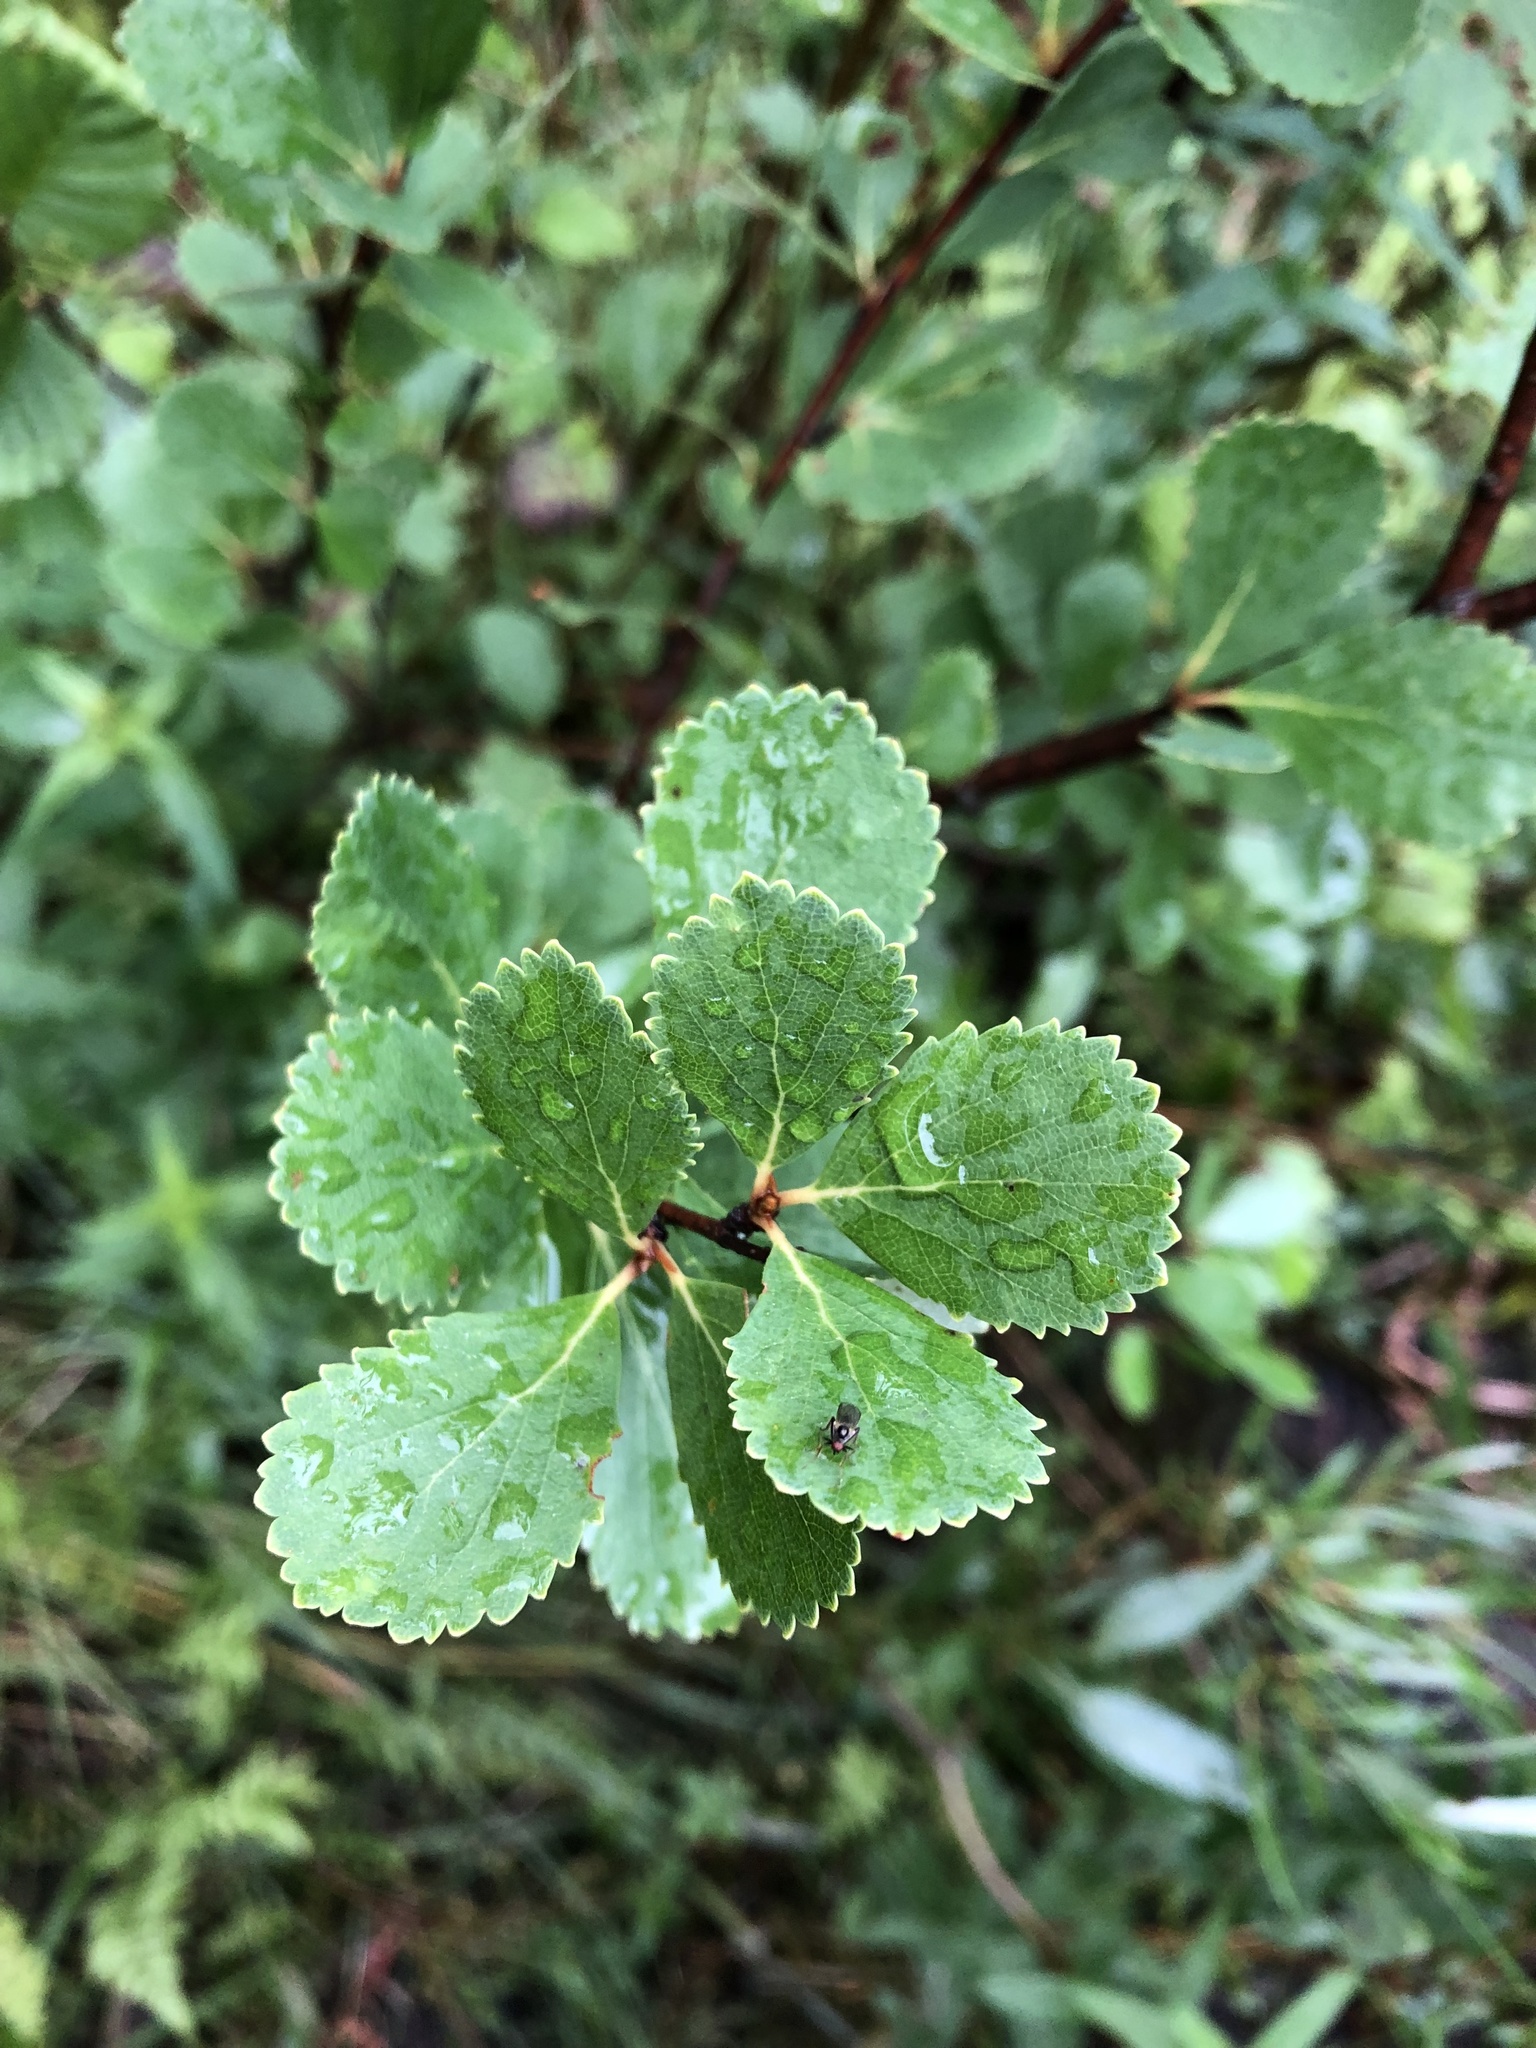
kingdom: Plantae
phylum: Tracheophyta
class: Magnoliopsida
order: Fagales
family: Betulaceae
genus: Betula
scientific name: Betula pumila
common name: Bog birch
